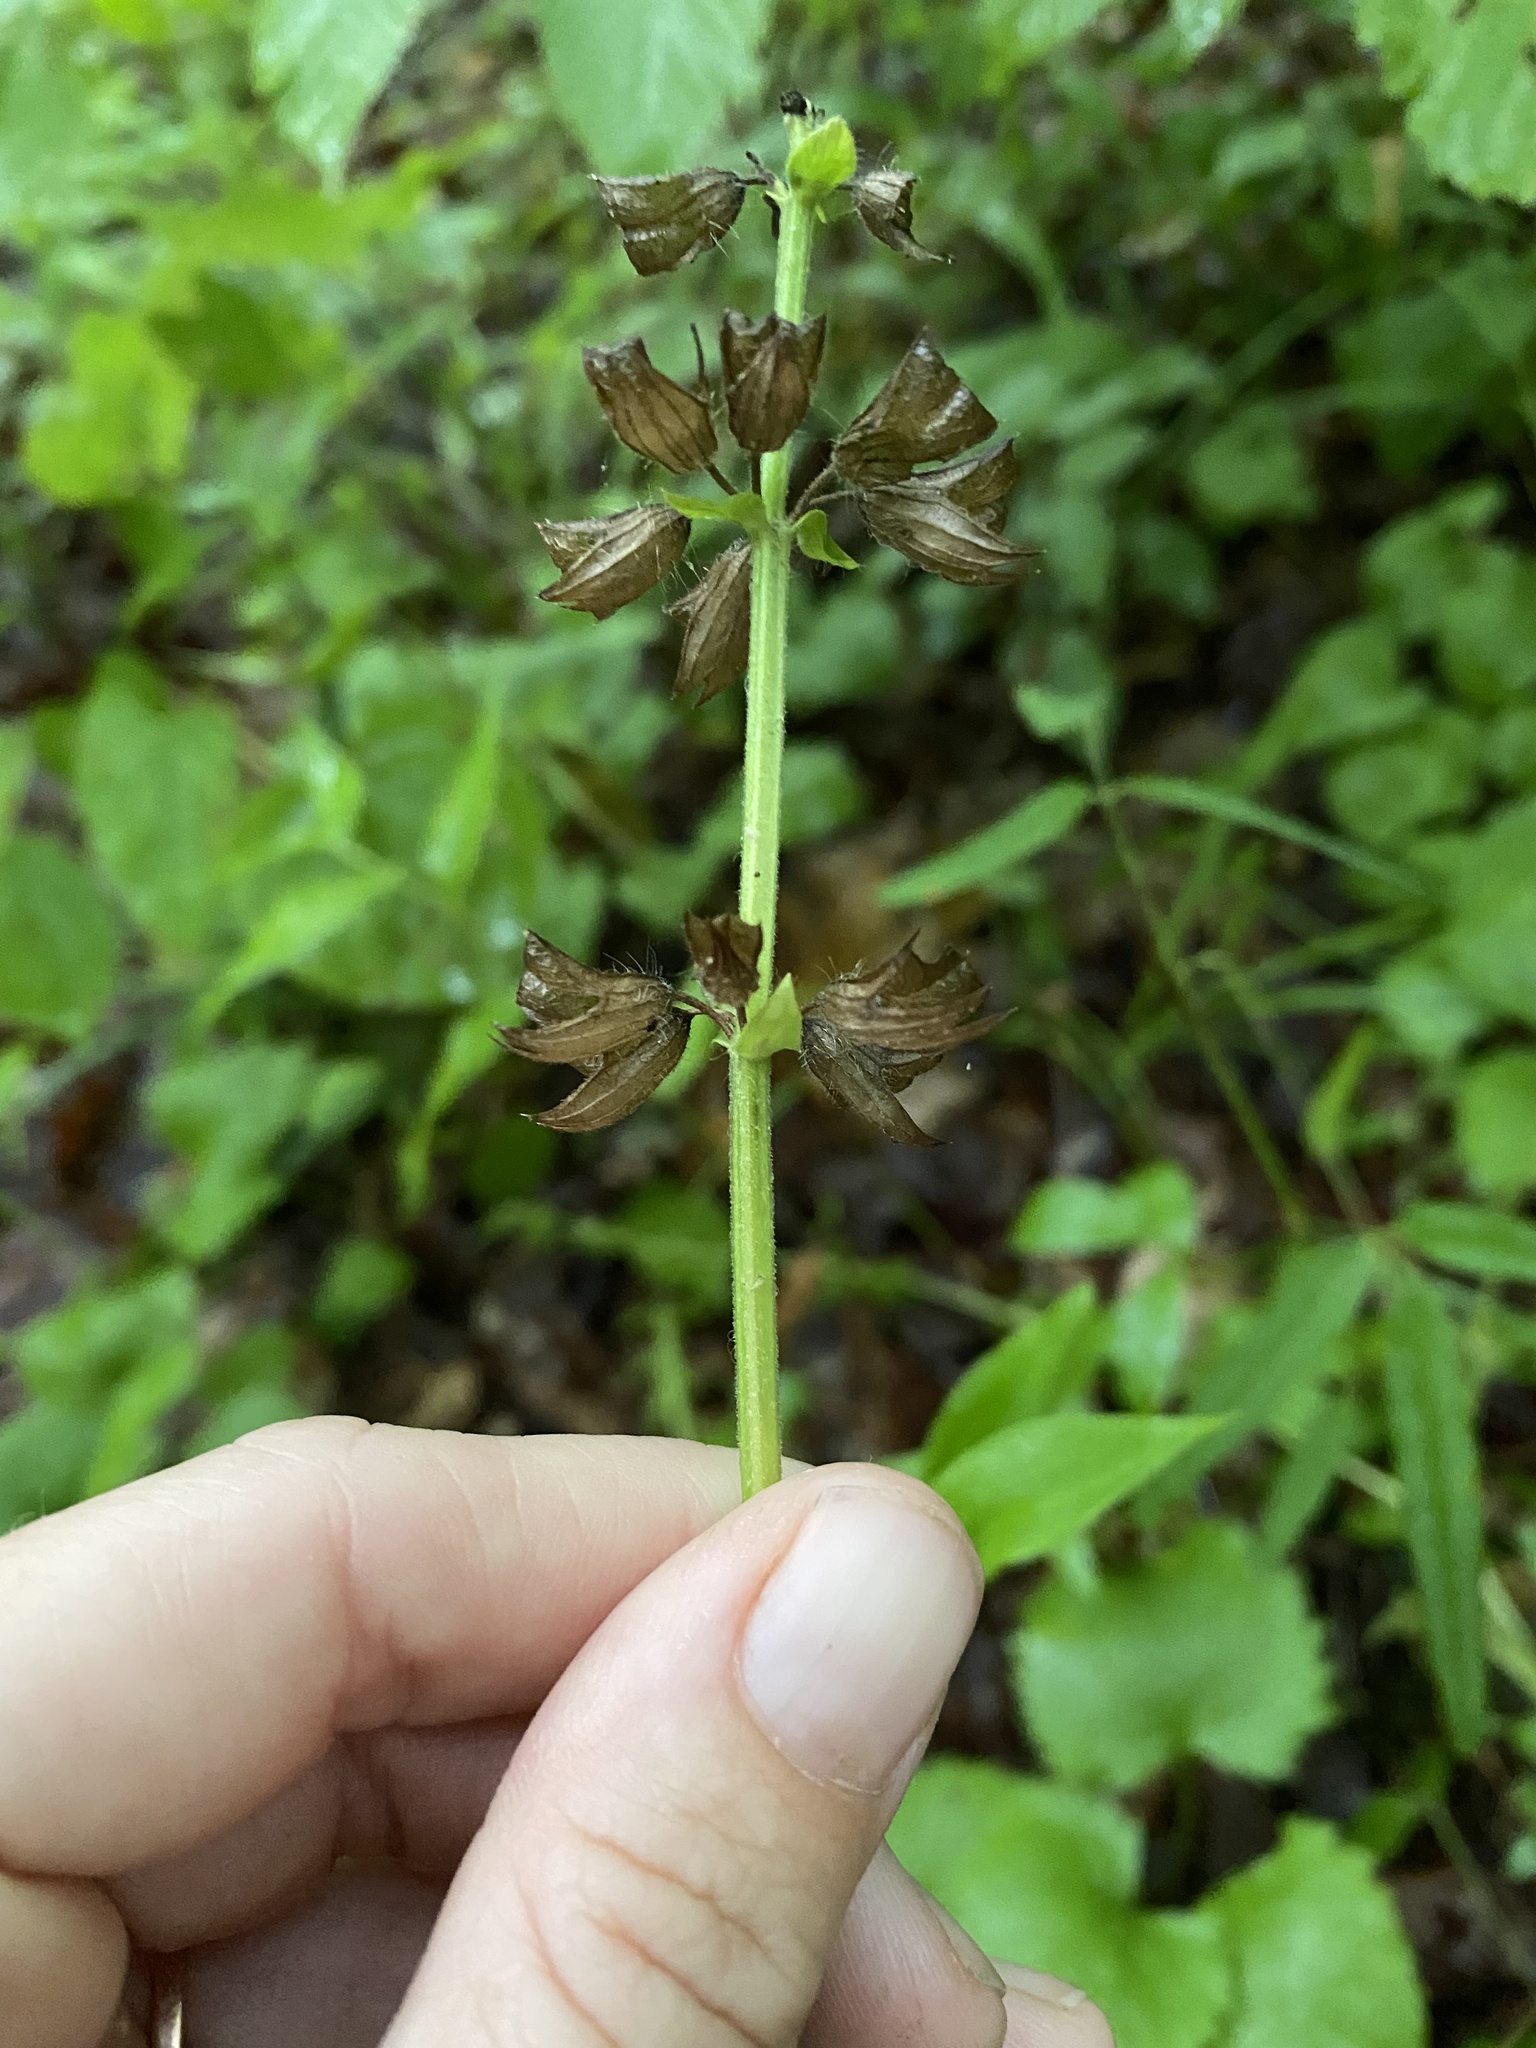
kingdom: Plantae
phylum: Tracheophyta
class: Magnoliopsida
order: Lamiales
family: Lamiaceae
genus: Salvia
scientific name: Salvia lyrata
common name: Cancerweed
